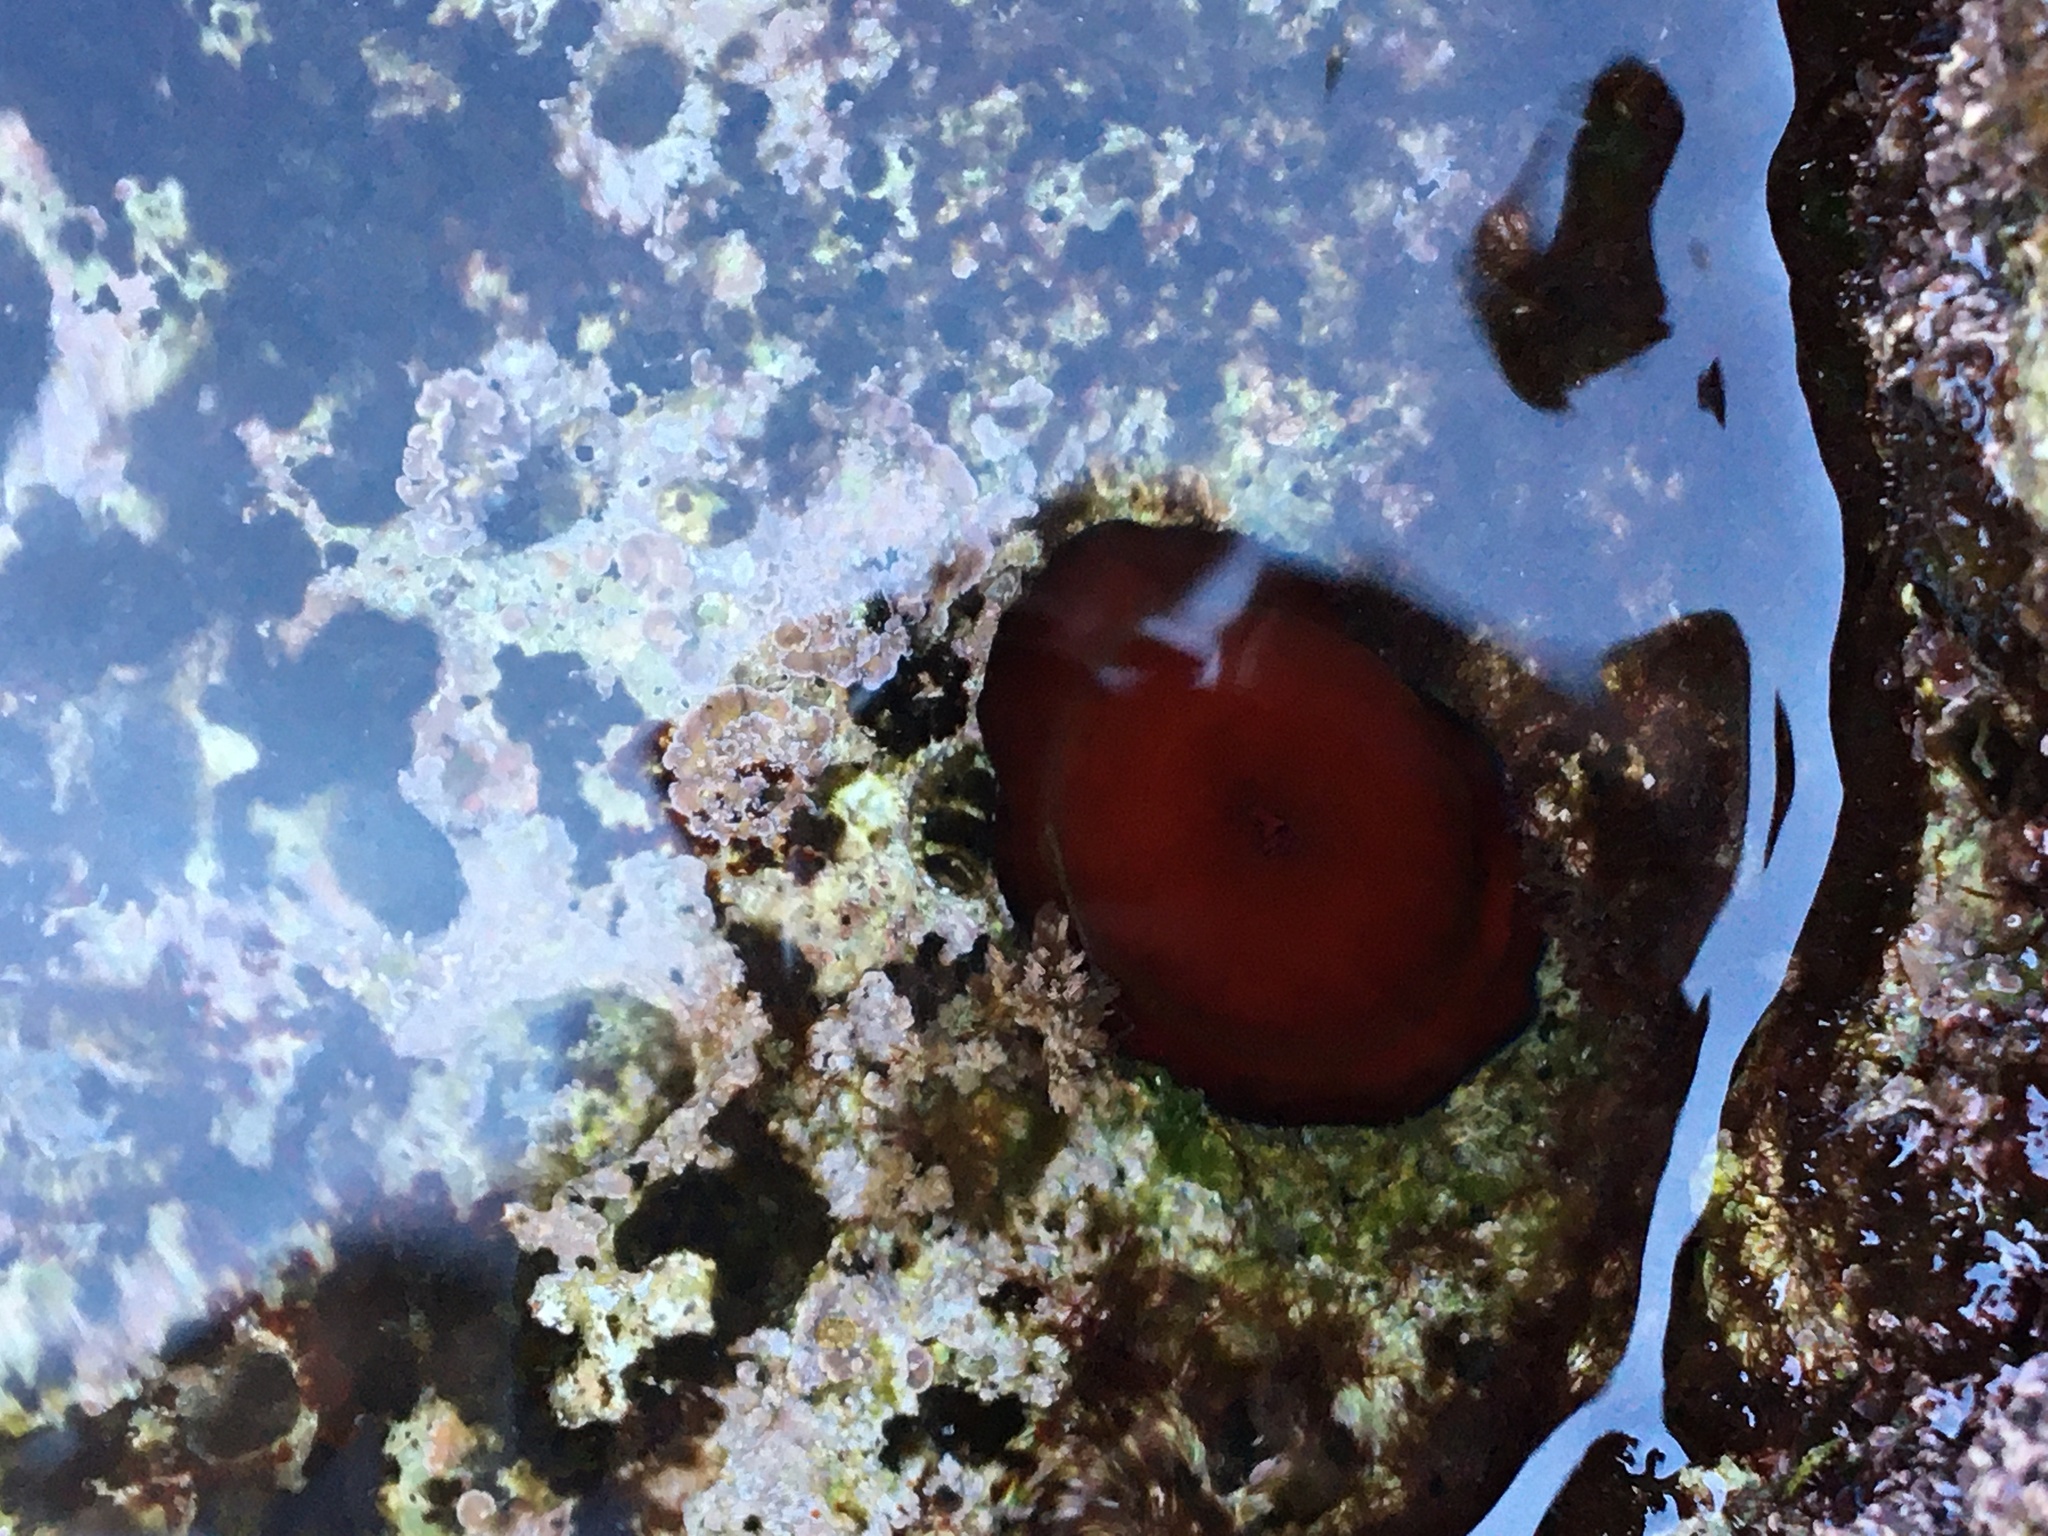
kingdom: Animalia
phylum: Cnidaria
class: Anthozoa
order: Actiniaria
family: Actiniidae
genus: Actinia
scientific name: Actinia mediterranea
